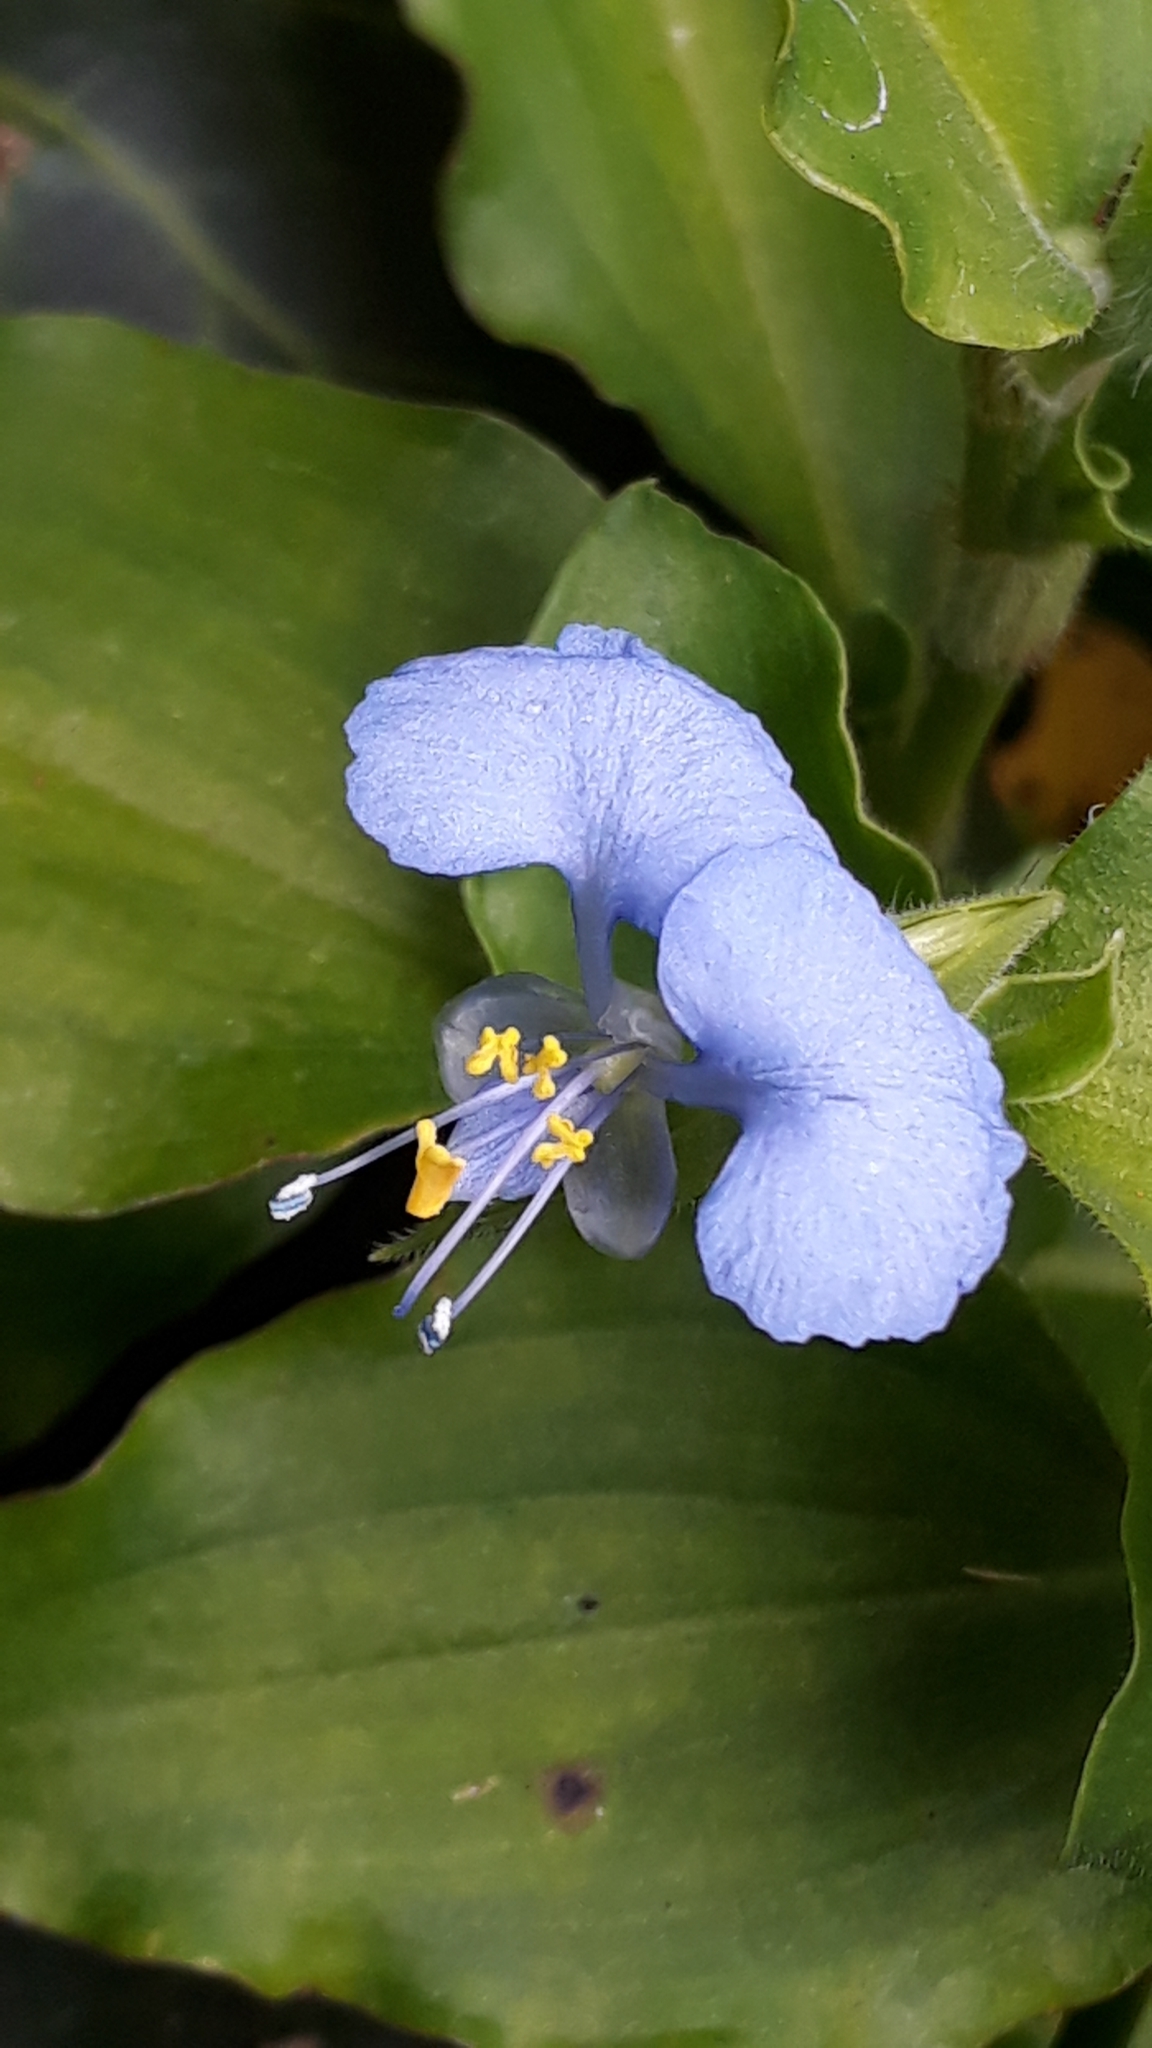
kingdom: Plantae
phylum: Tracheophyta
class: Liliopsida
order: Commelinales
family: Commelinaceae
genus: Commelina
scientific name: Commelina benghalensis
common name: Jio
